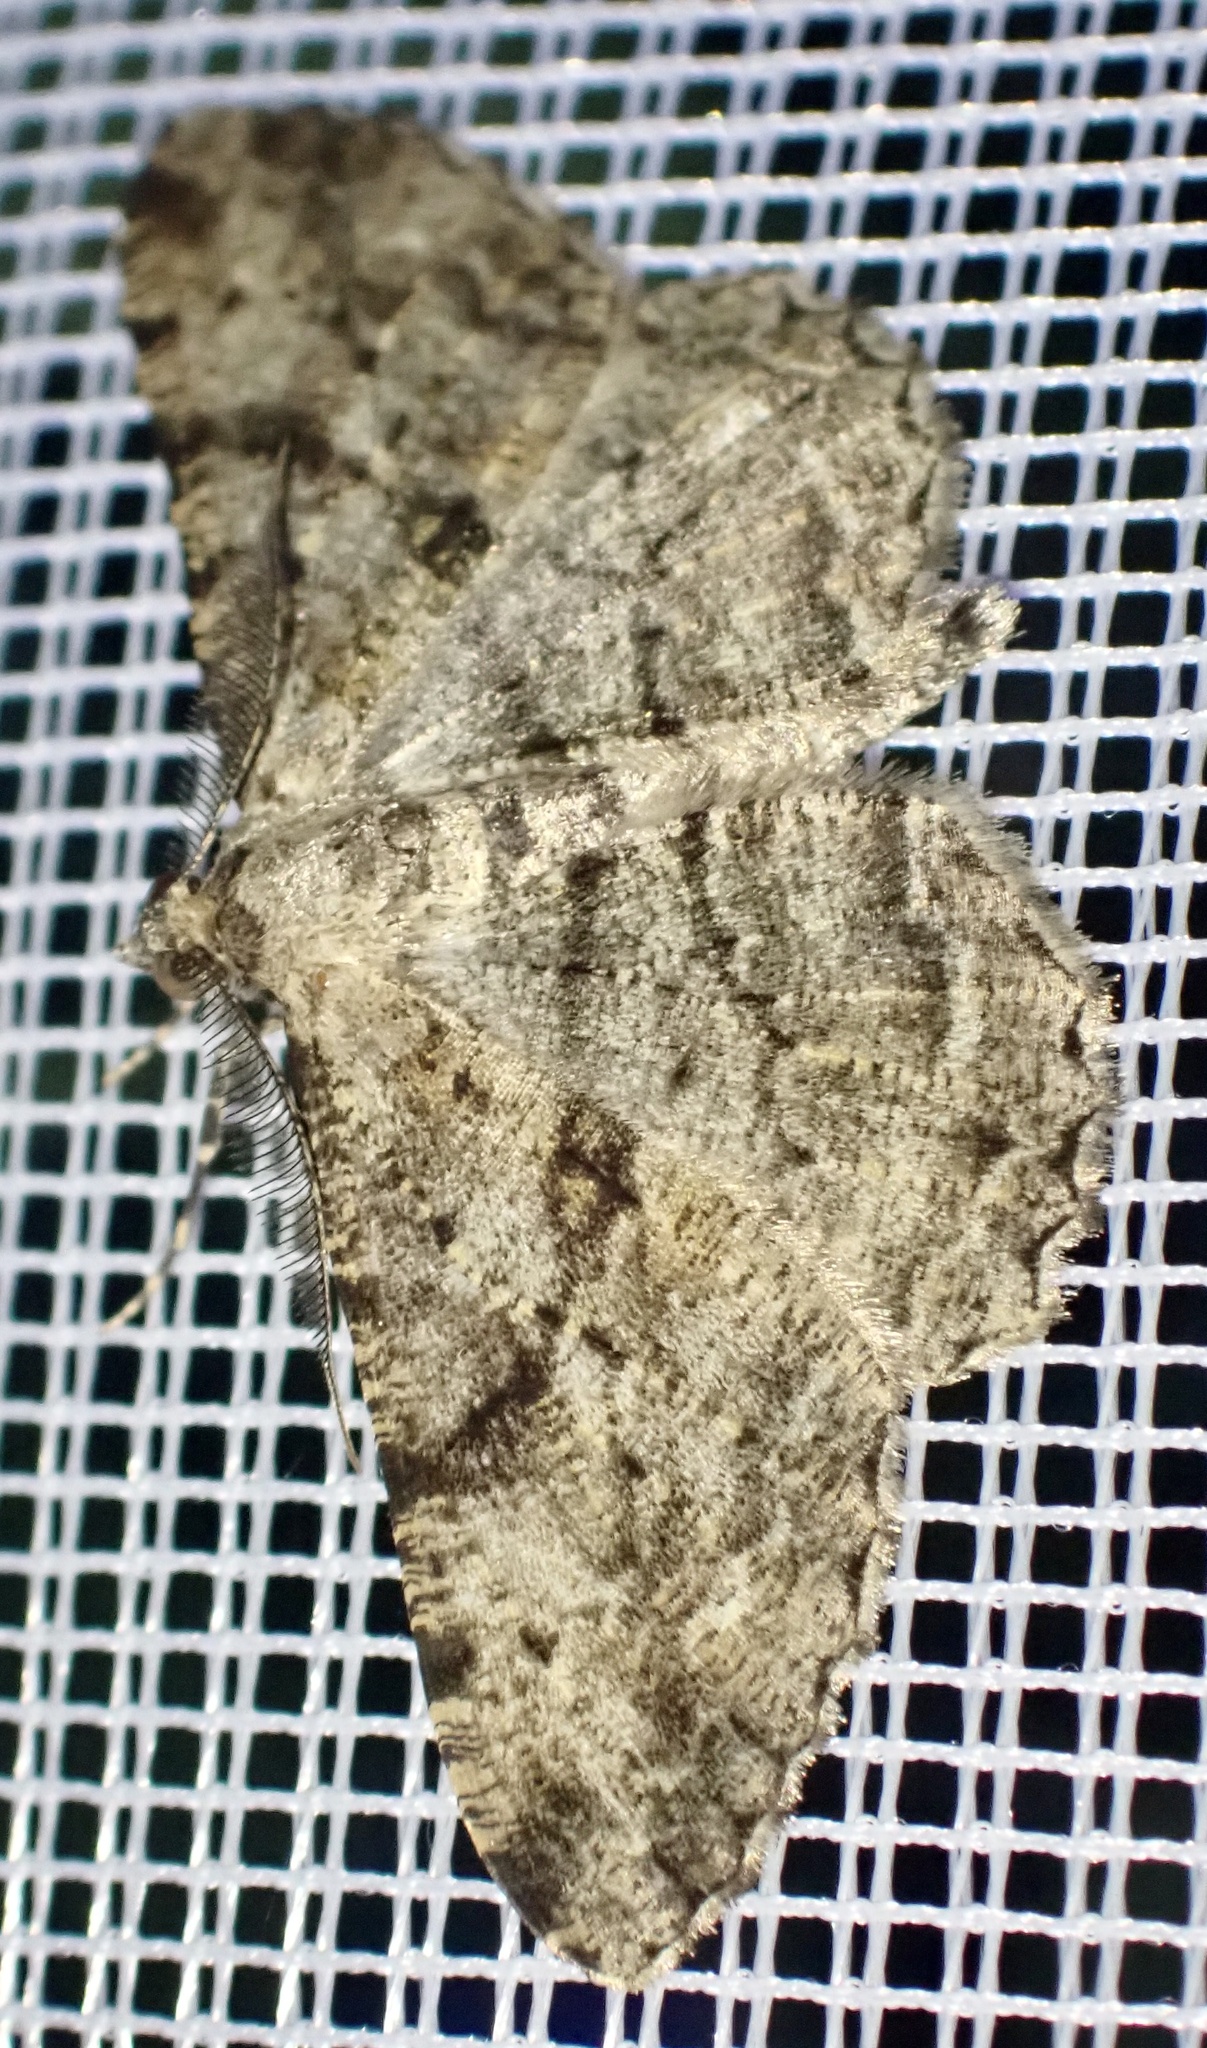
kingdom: Animalia
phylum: Arthropoda
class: Insecta
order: Lepidoptera
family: Geometridae
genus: Peribatodes
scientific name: Peribatodes rhomboidaria
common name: Willow beauty
